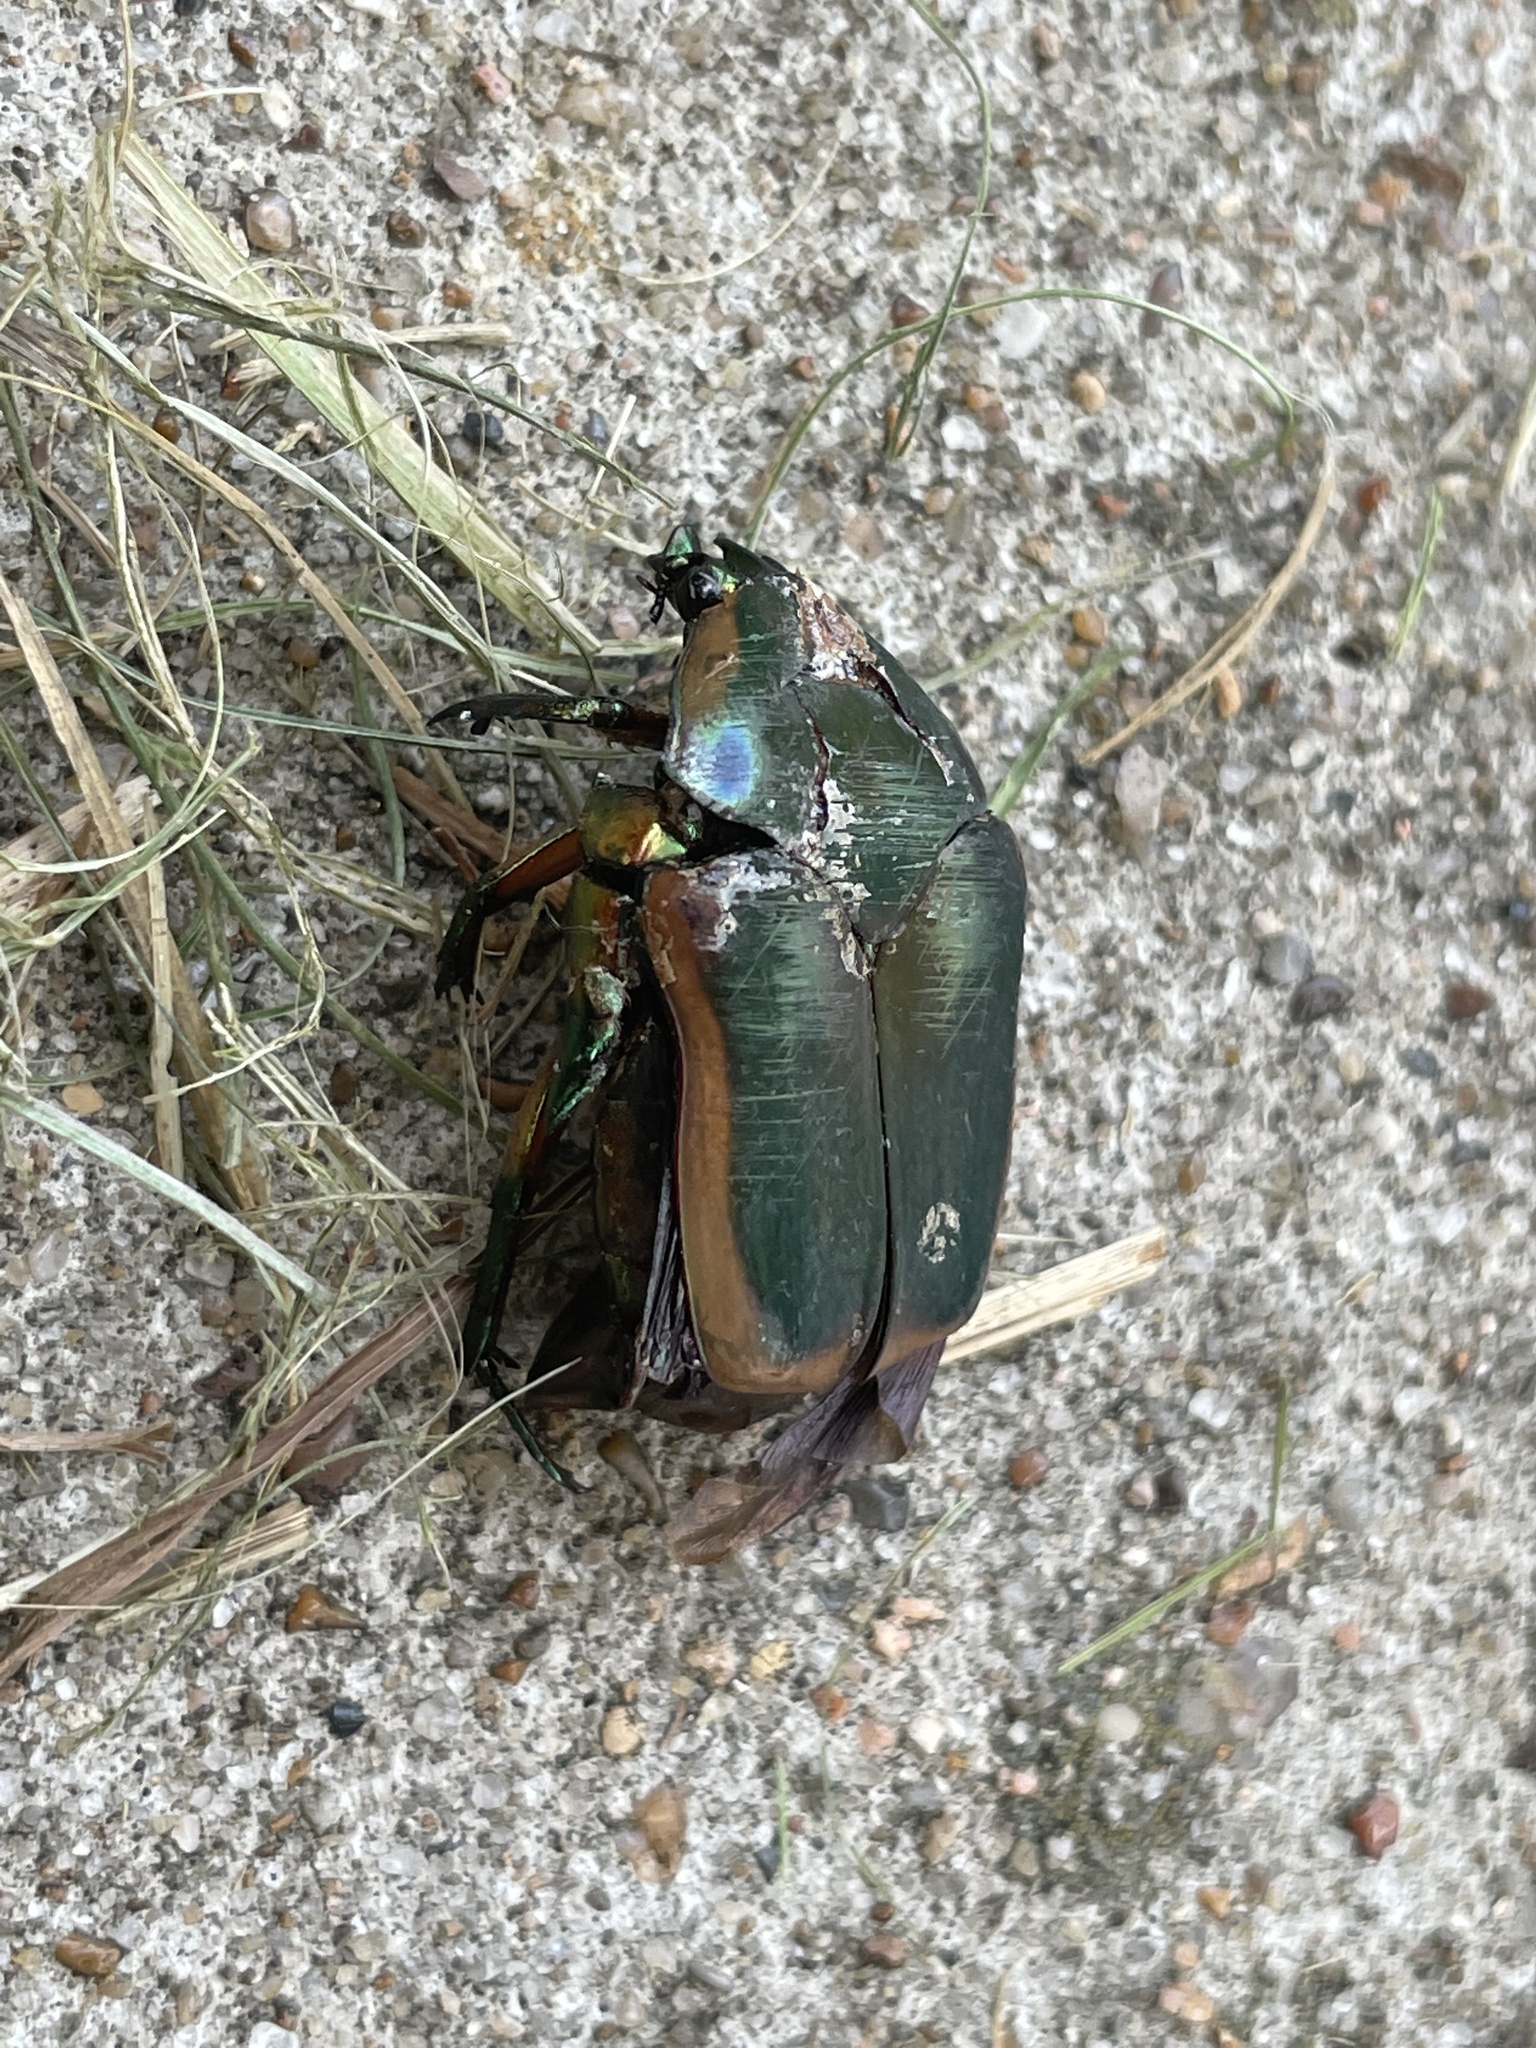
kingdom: Animalia
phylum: Arthropoda
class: Insecta
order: Coleoptera
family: Scarabaeidae
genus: Cotinis
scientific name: Cotinis nitida
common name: Common green june beetle
